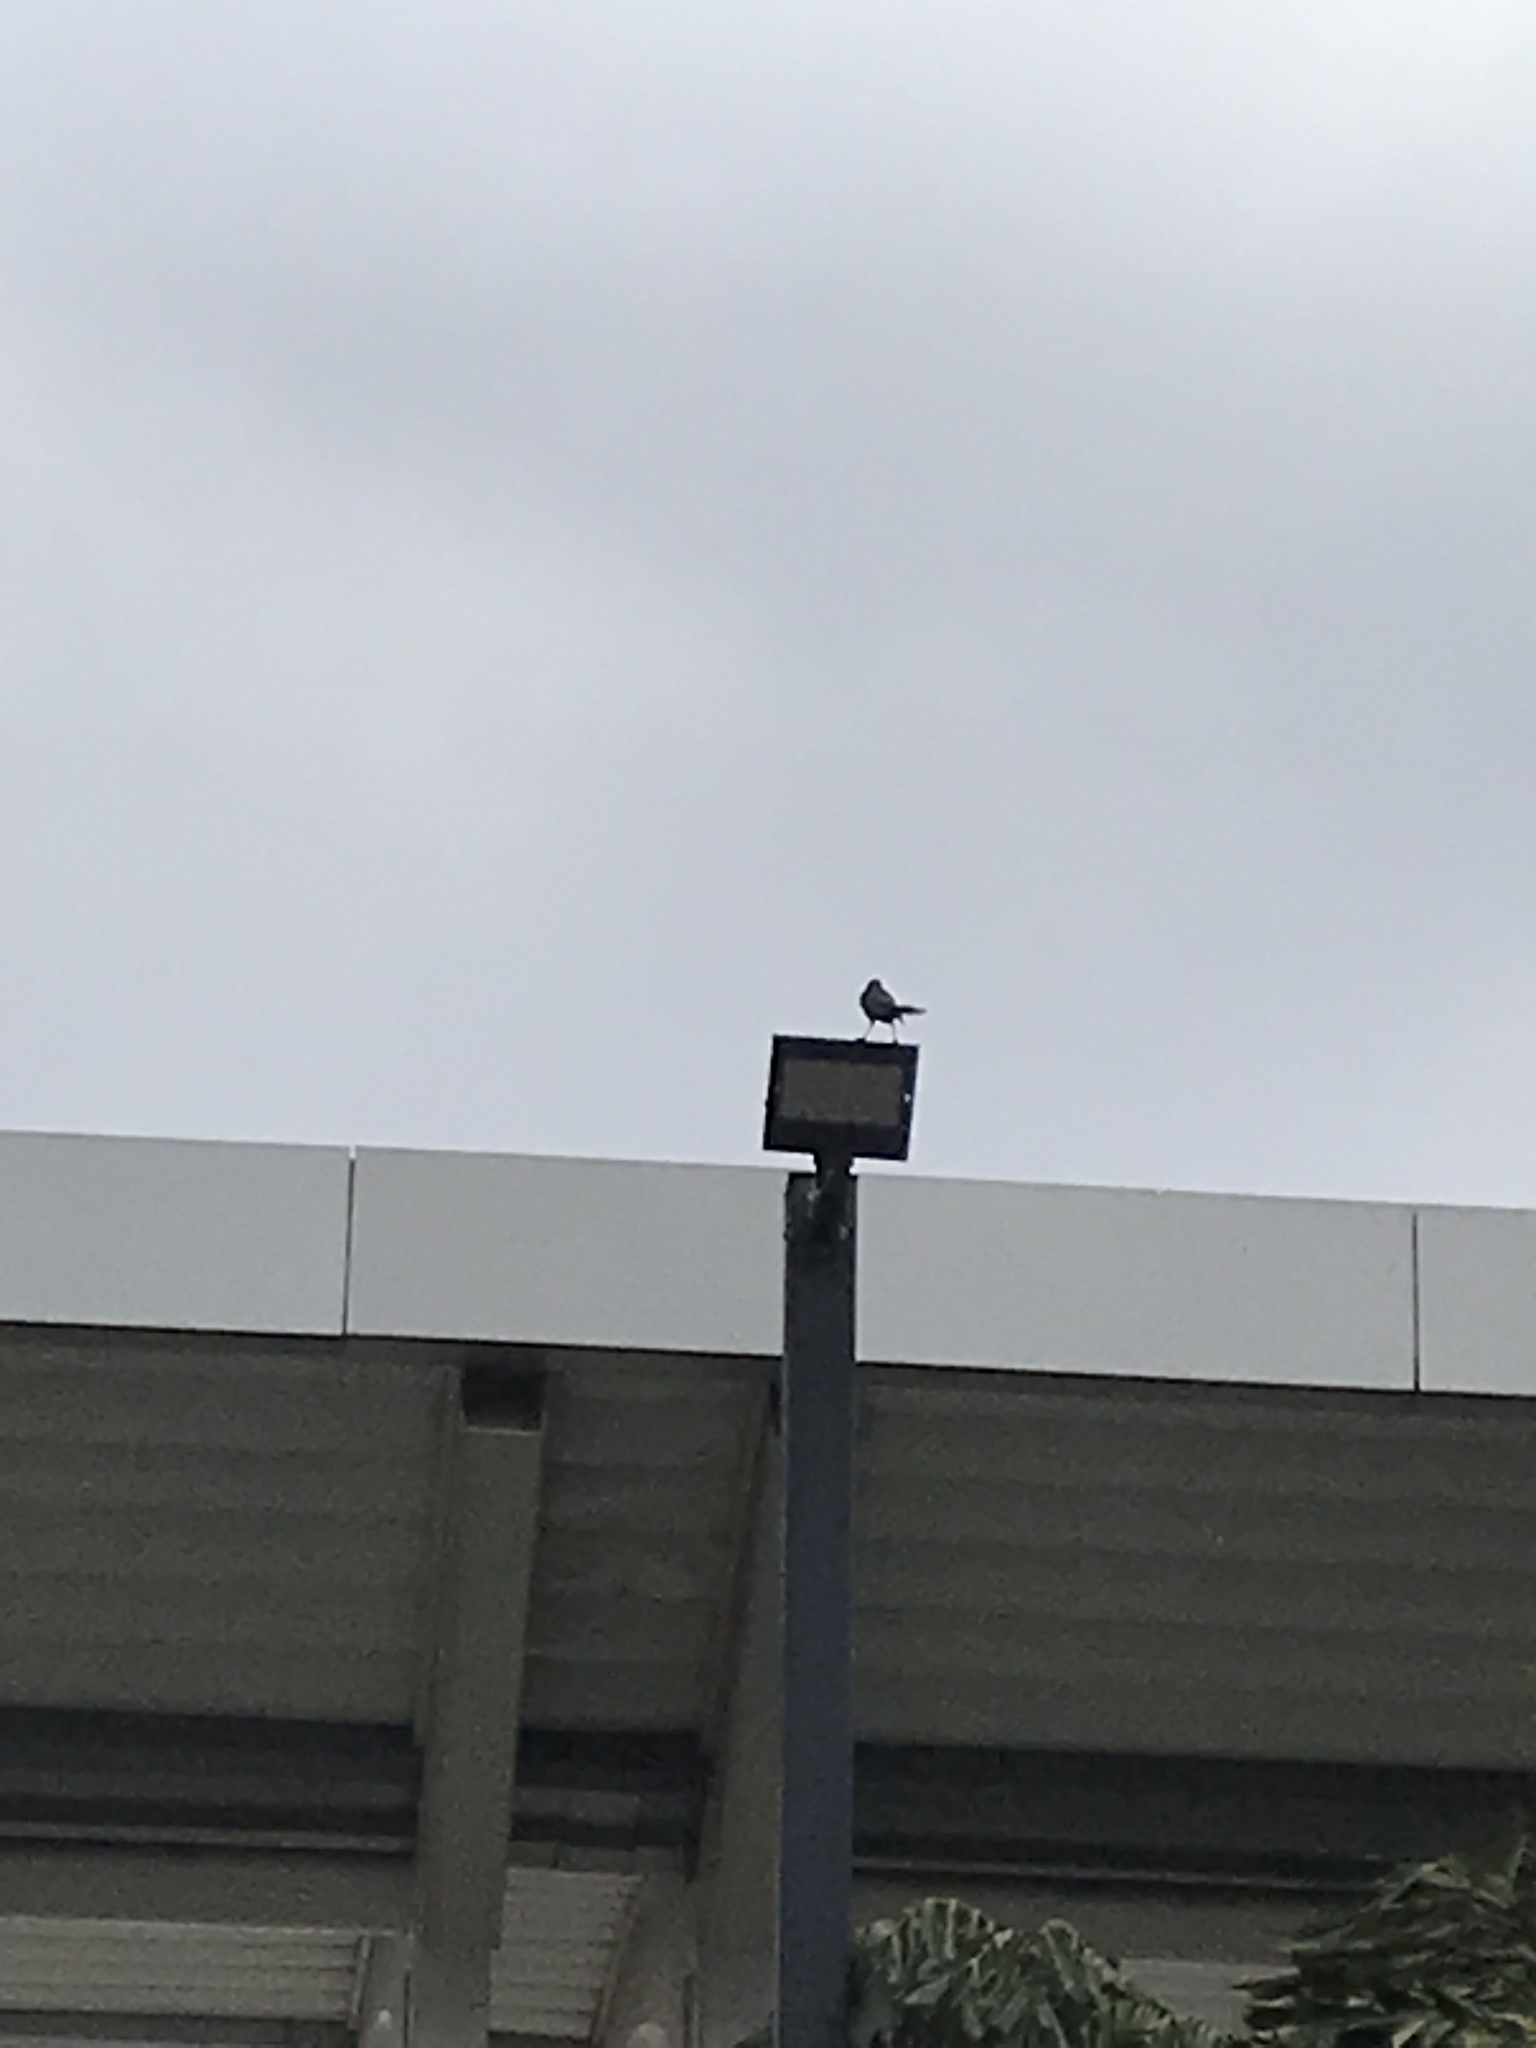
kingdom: Animalia
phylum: Chordata
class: Aves
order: Passeriformes
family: Icteridae
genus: Quiscalus
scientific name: Quiscalus mexicanus
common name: Great-tailed grackle
